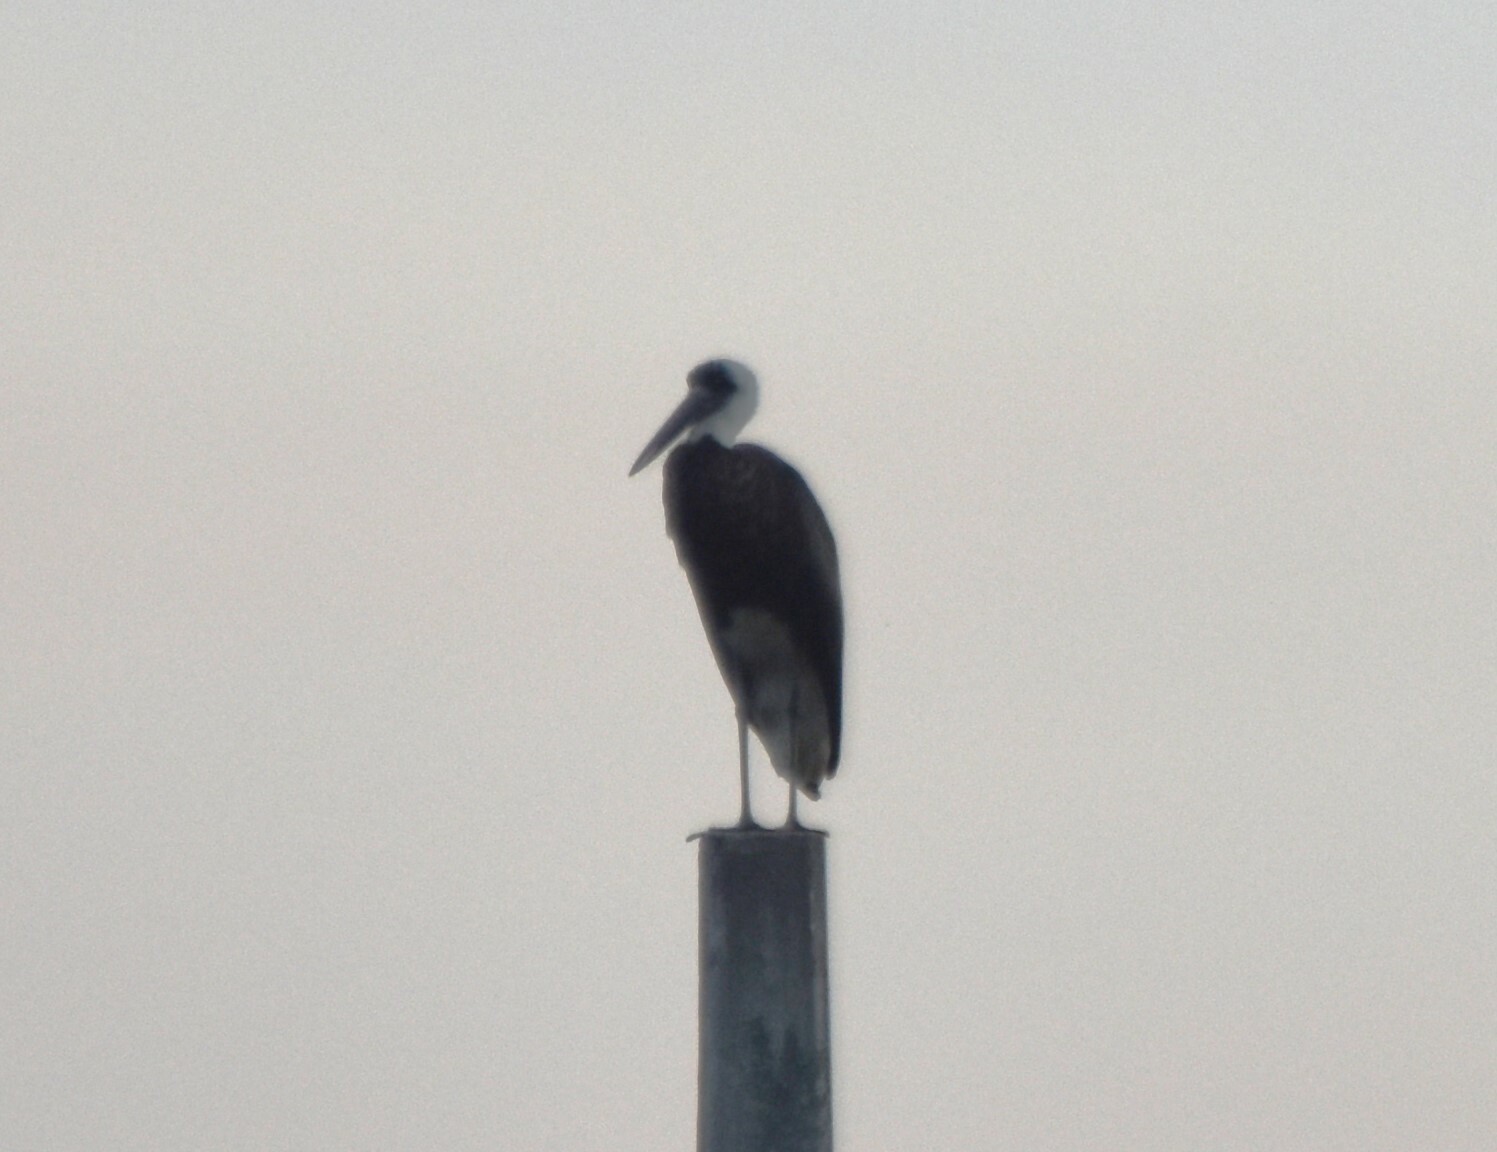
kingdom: Animalia
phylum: Chordata
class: Aves
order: Ciconiiformes
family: Ciconiidae
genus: Ciconia
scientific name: Ciconia microscelis
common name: African woollyneck
